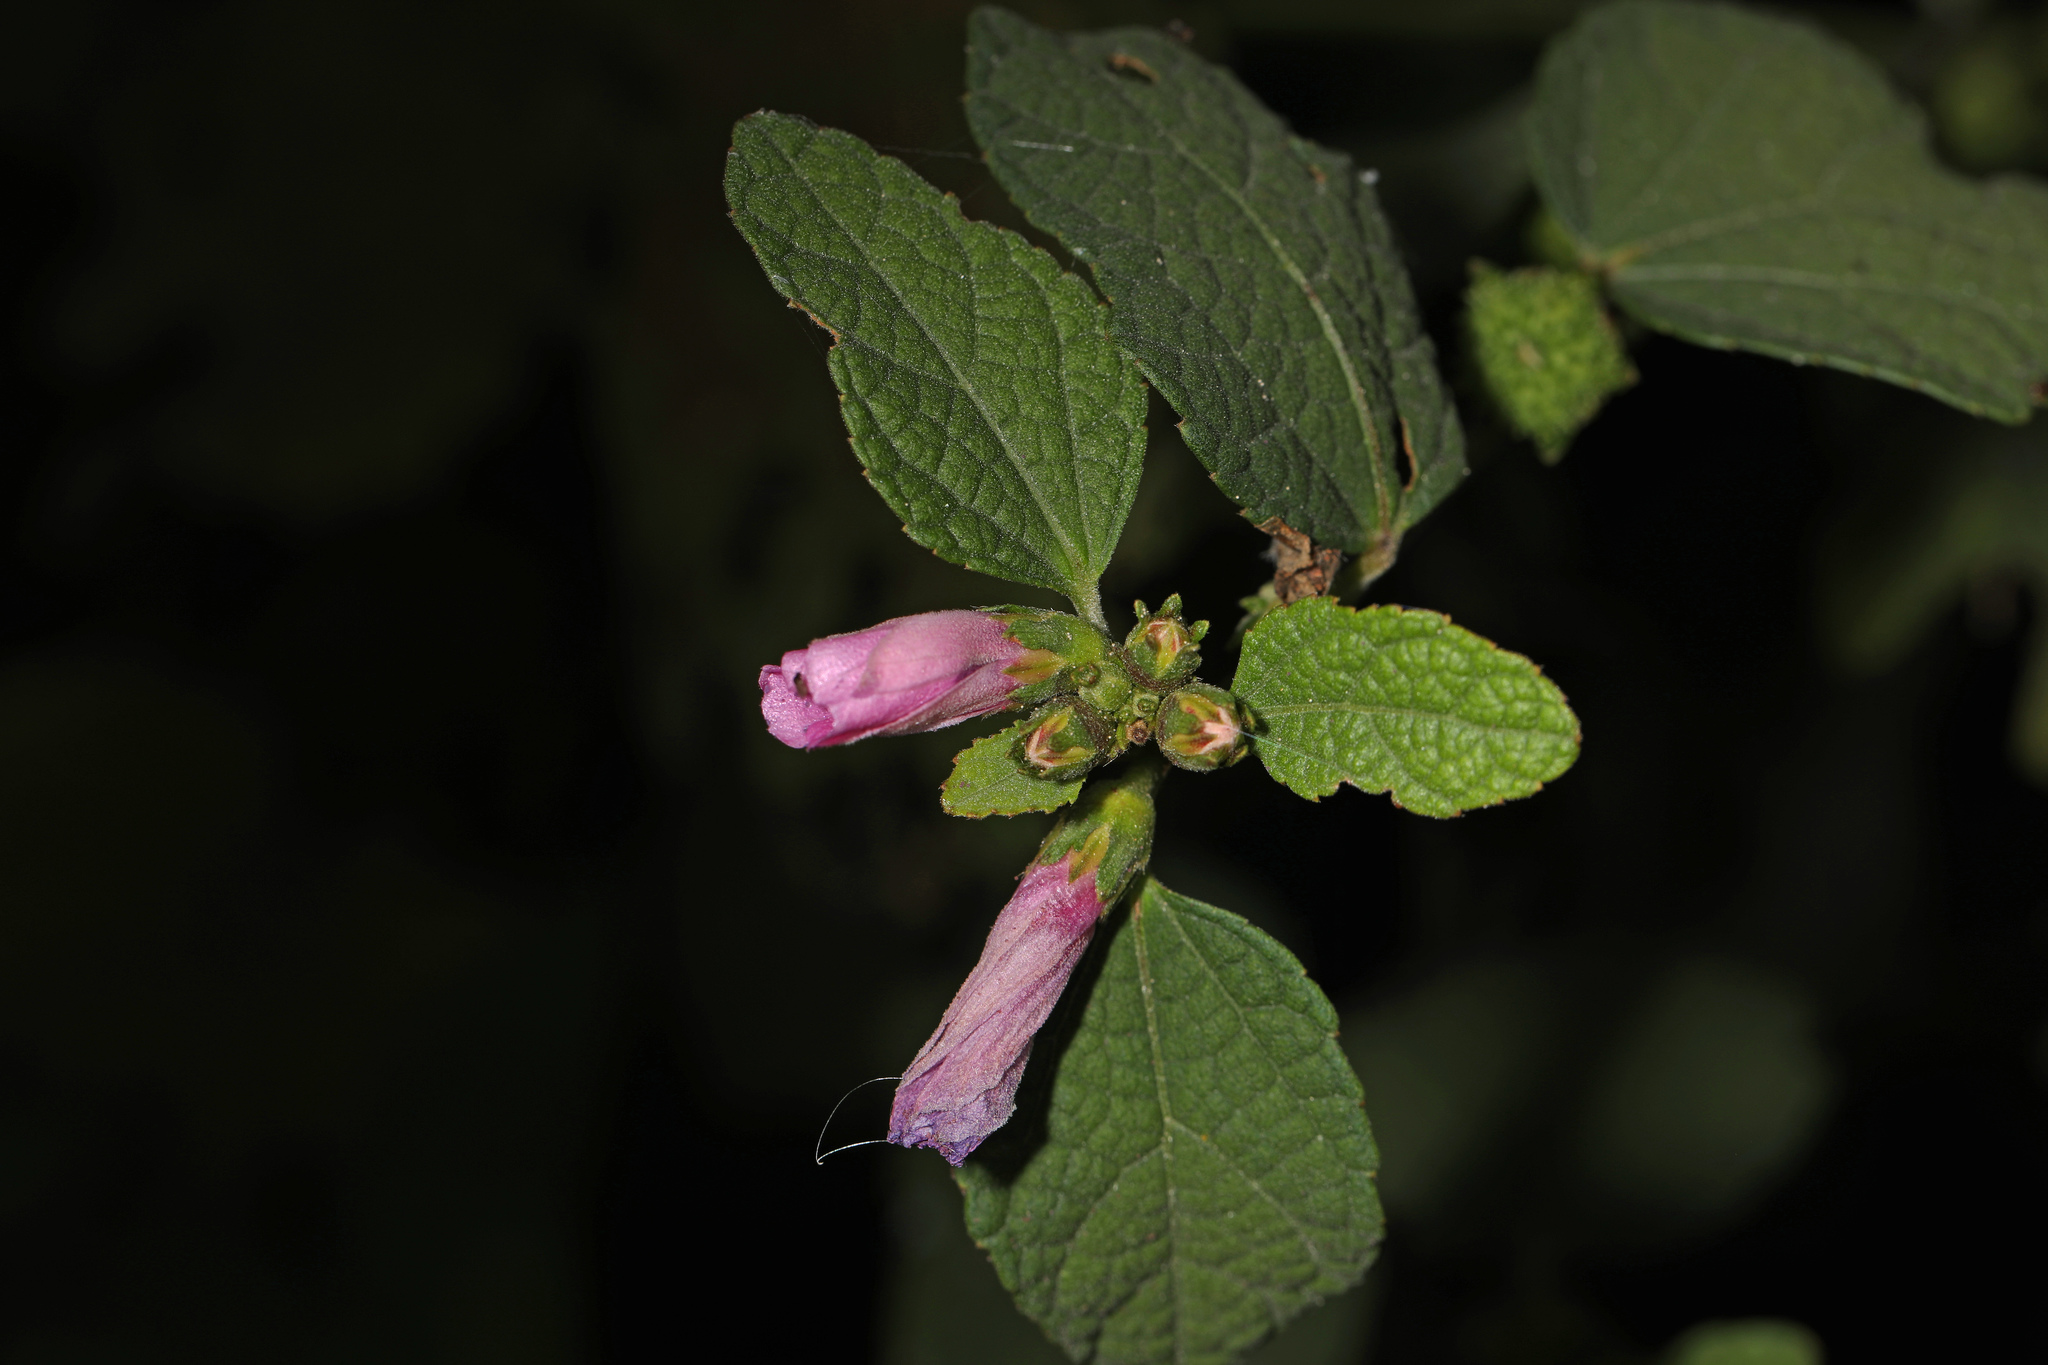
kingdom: Plantae
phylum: Tracheophyta
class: Magnoliopsida
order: Malvales
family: Malvaceae
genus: Urena
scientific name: Urena lobata
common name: Caesarweed
